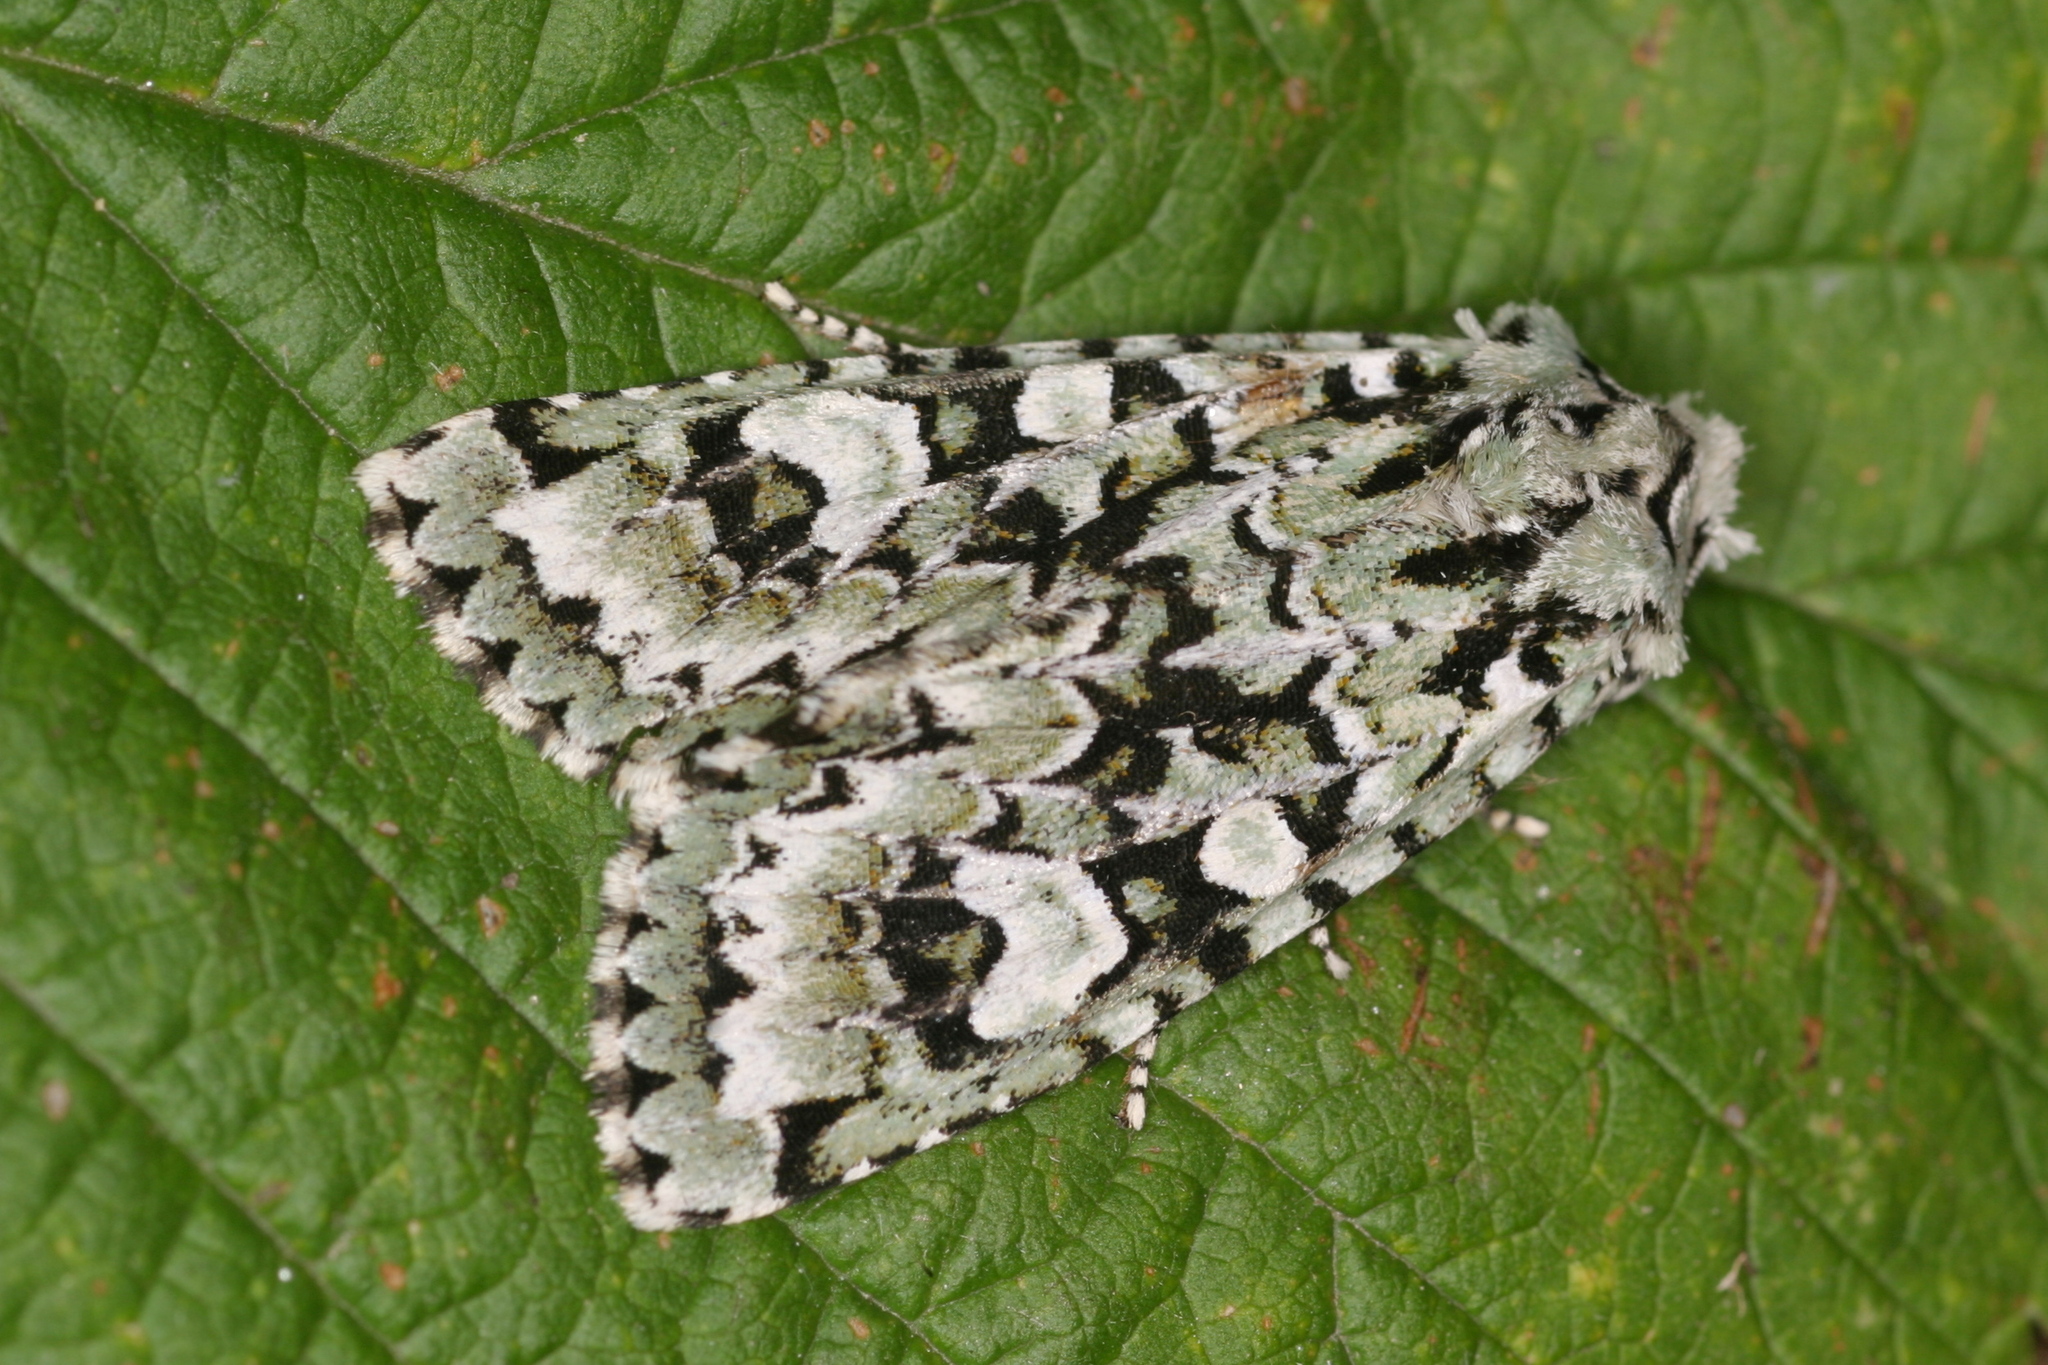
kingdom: Animalia
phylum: Arthropoda
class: Insecta
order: Lepidoptera
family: Noctuidae
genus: Griposia
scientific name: Griposia aprilina
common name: Merveille du jour
